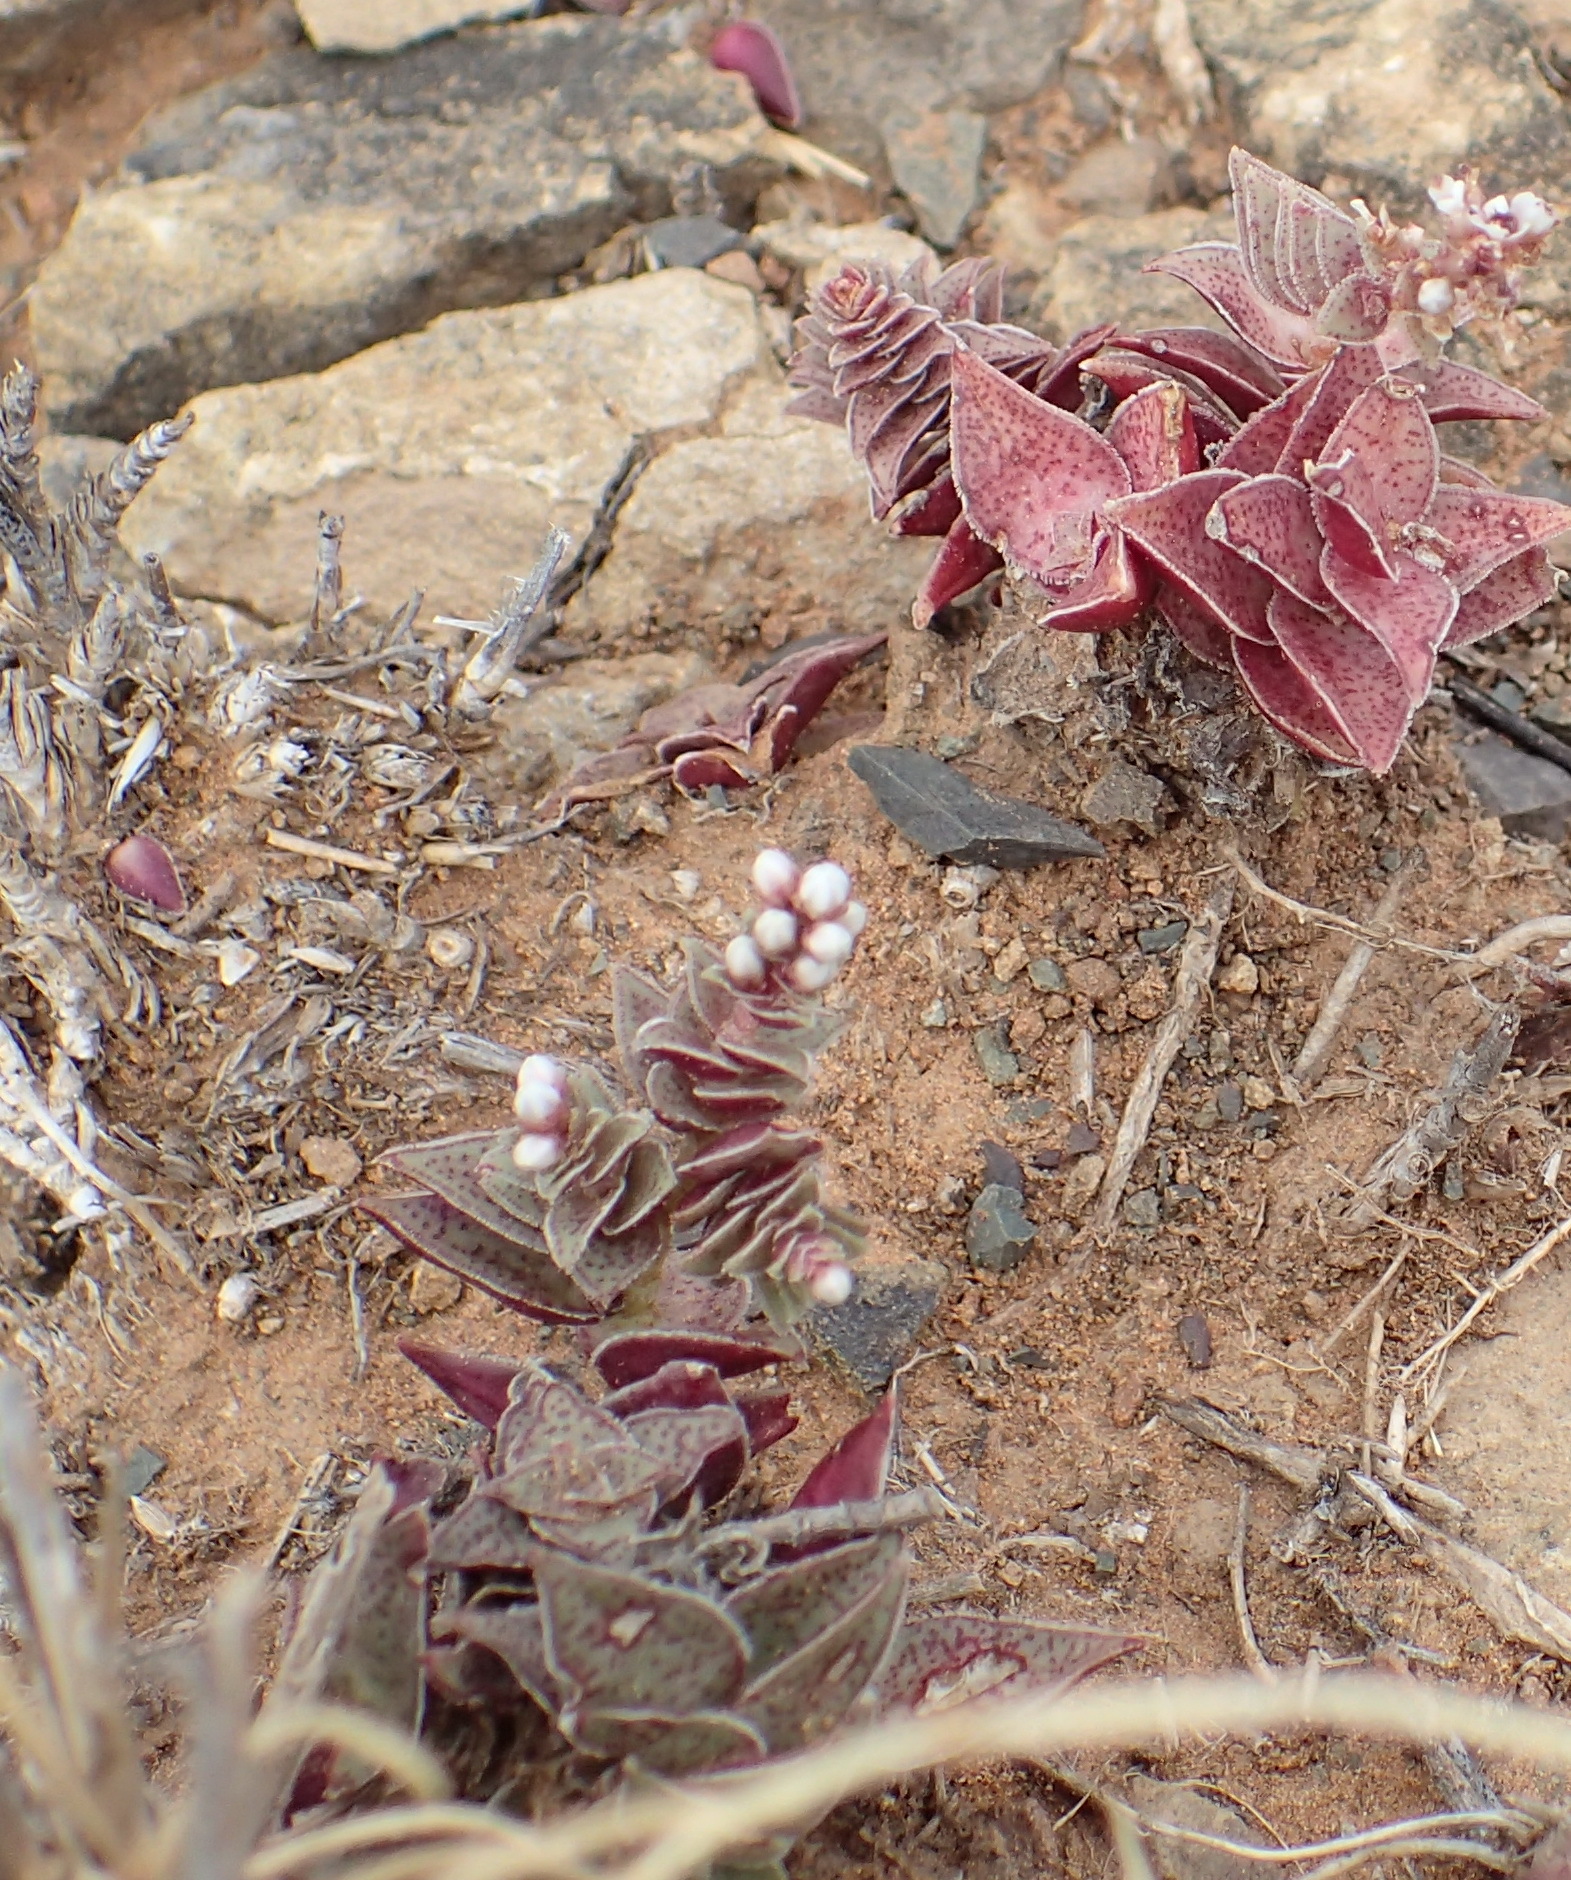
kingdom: Plantae
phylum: Tracheophyta
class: Magnoliopsida
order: Saxifragales
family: Crassulaceae
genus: Crassula
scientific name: Crassula capitella
